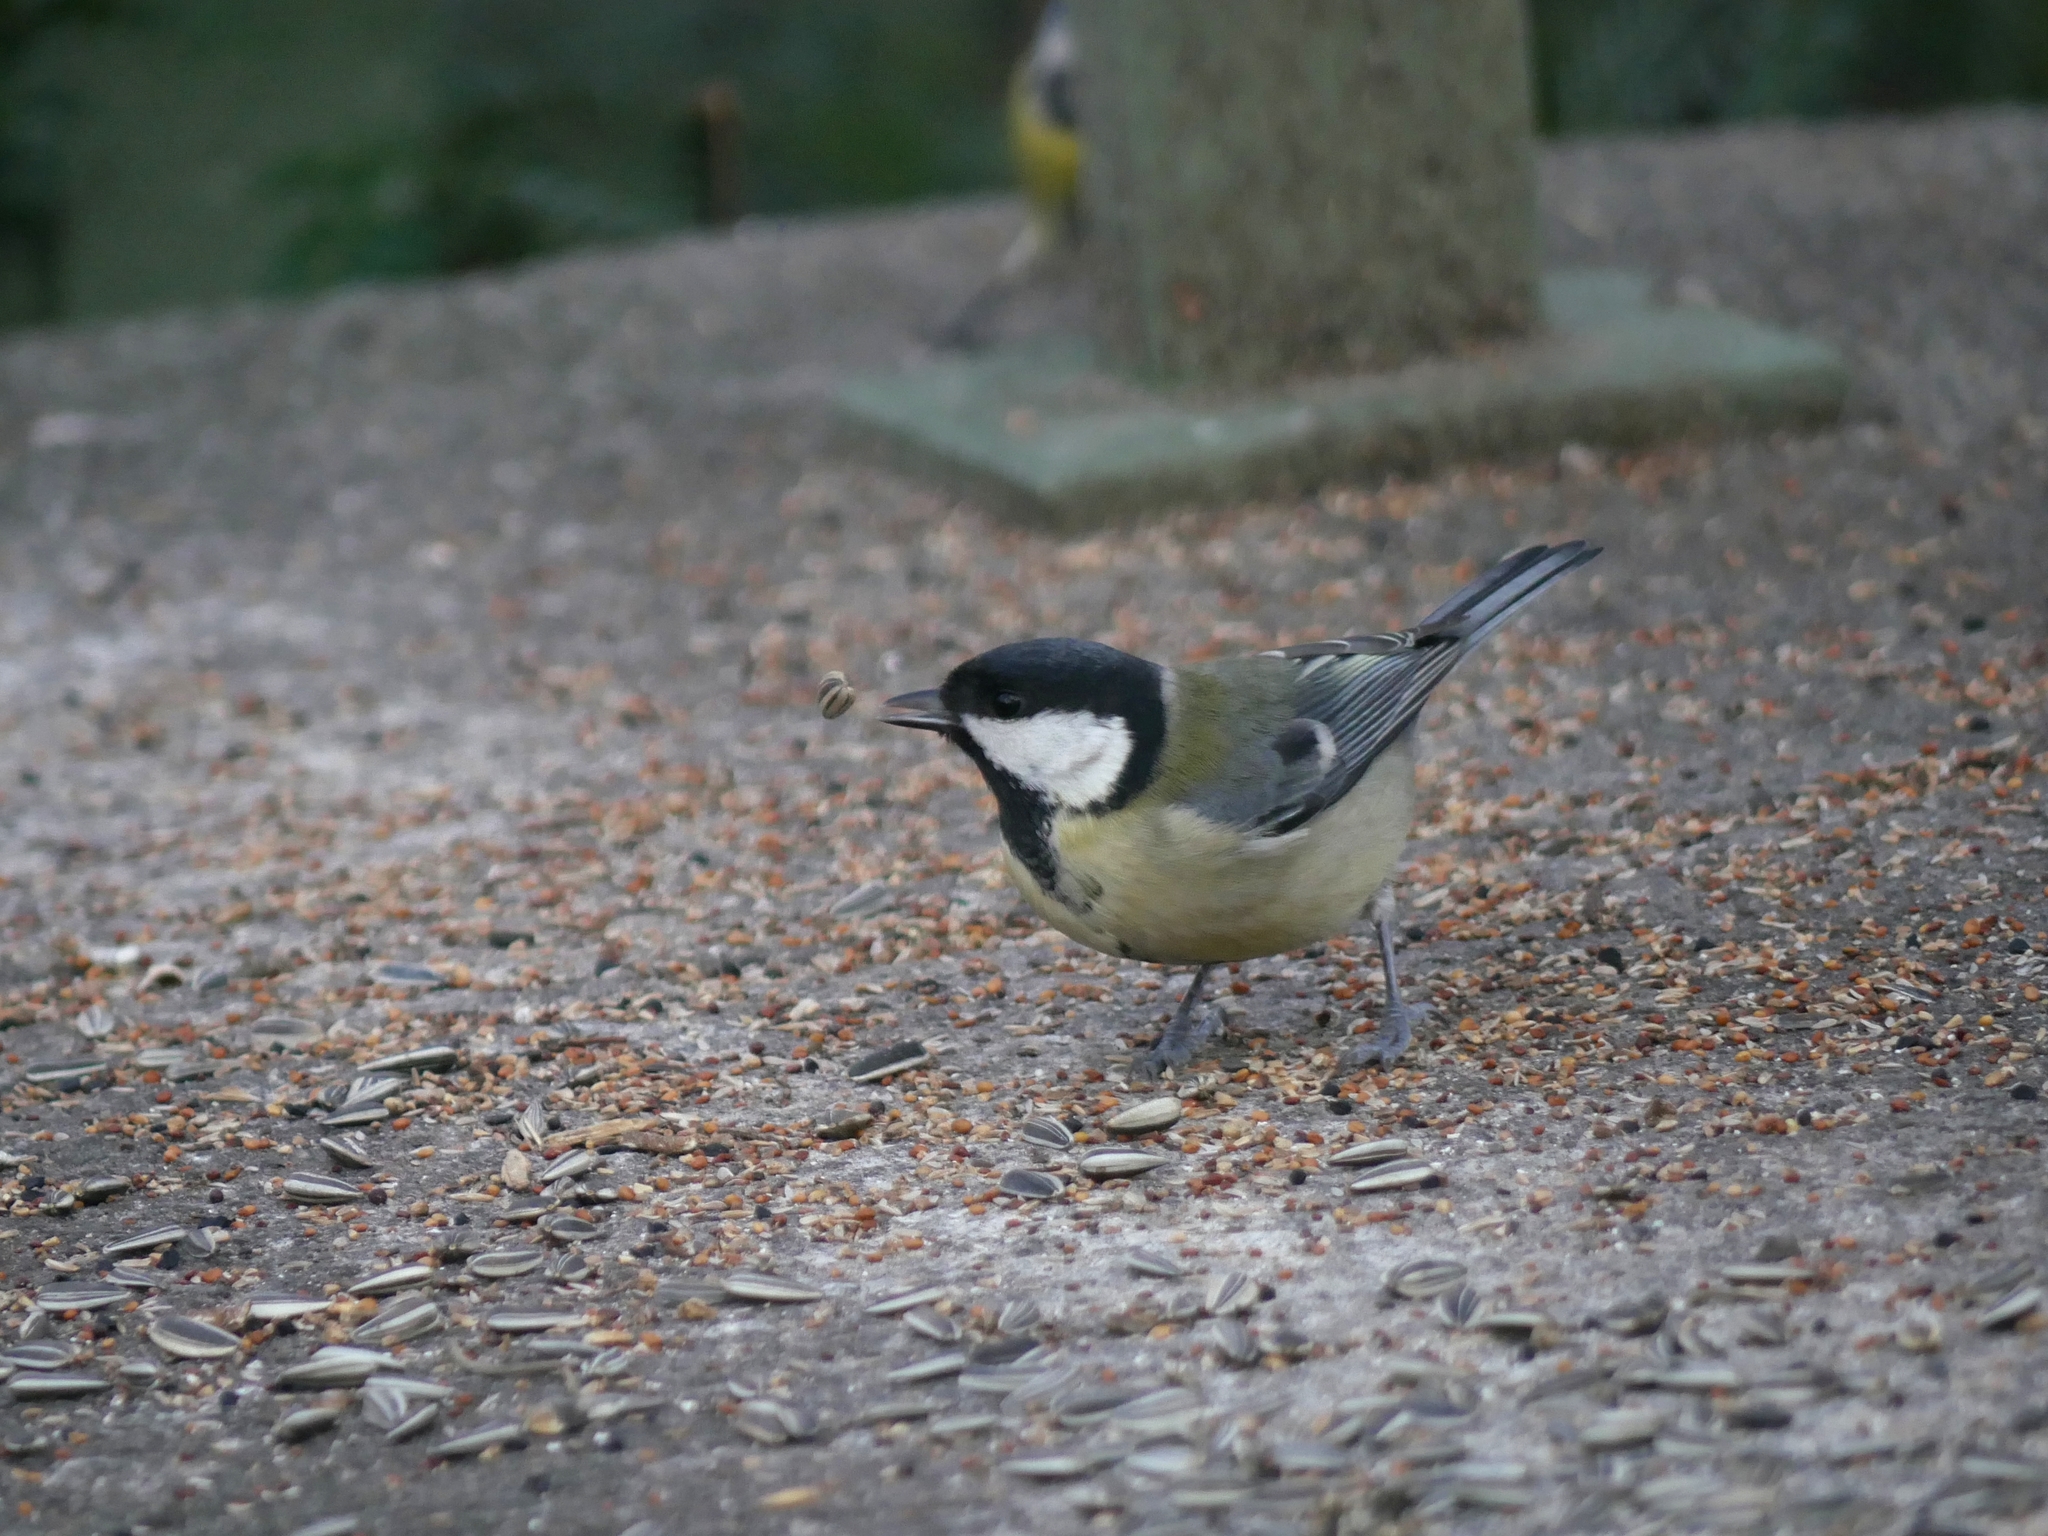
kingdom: Animalia
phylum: Chordata
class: Aves
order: Passeriformes
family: Paridae
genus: Parus
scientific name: Parus major
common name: Great tit
